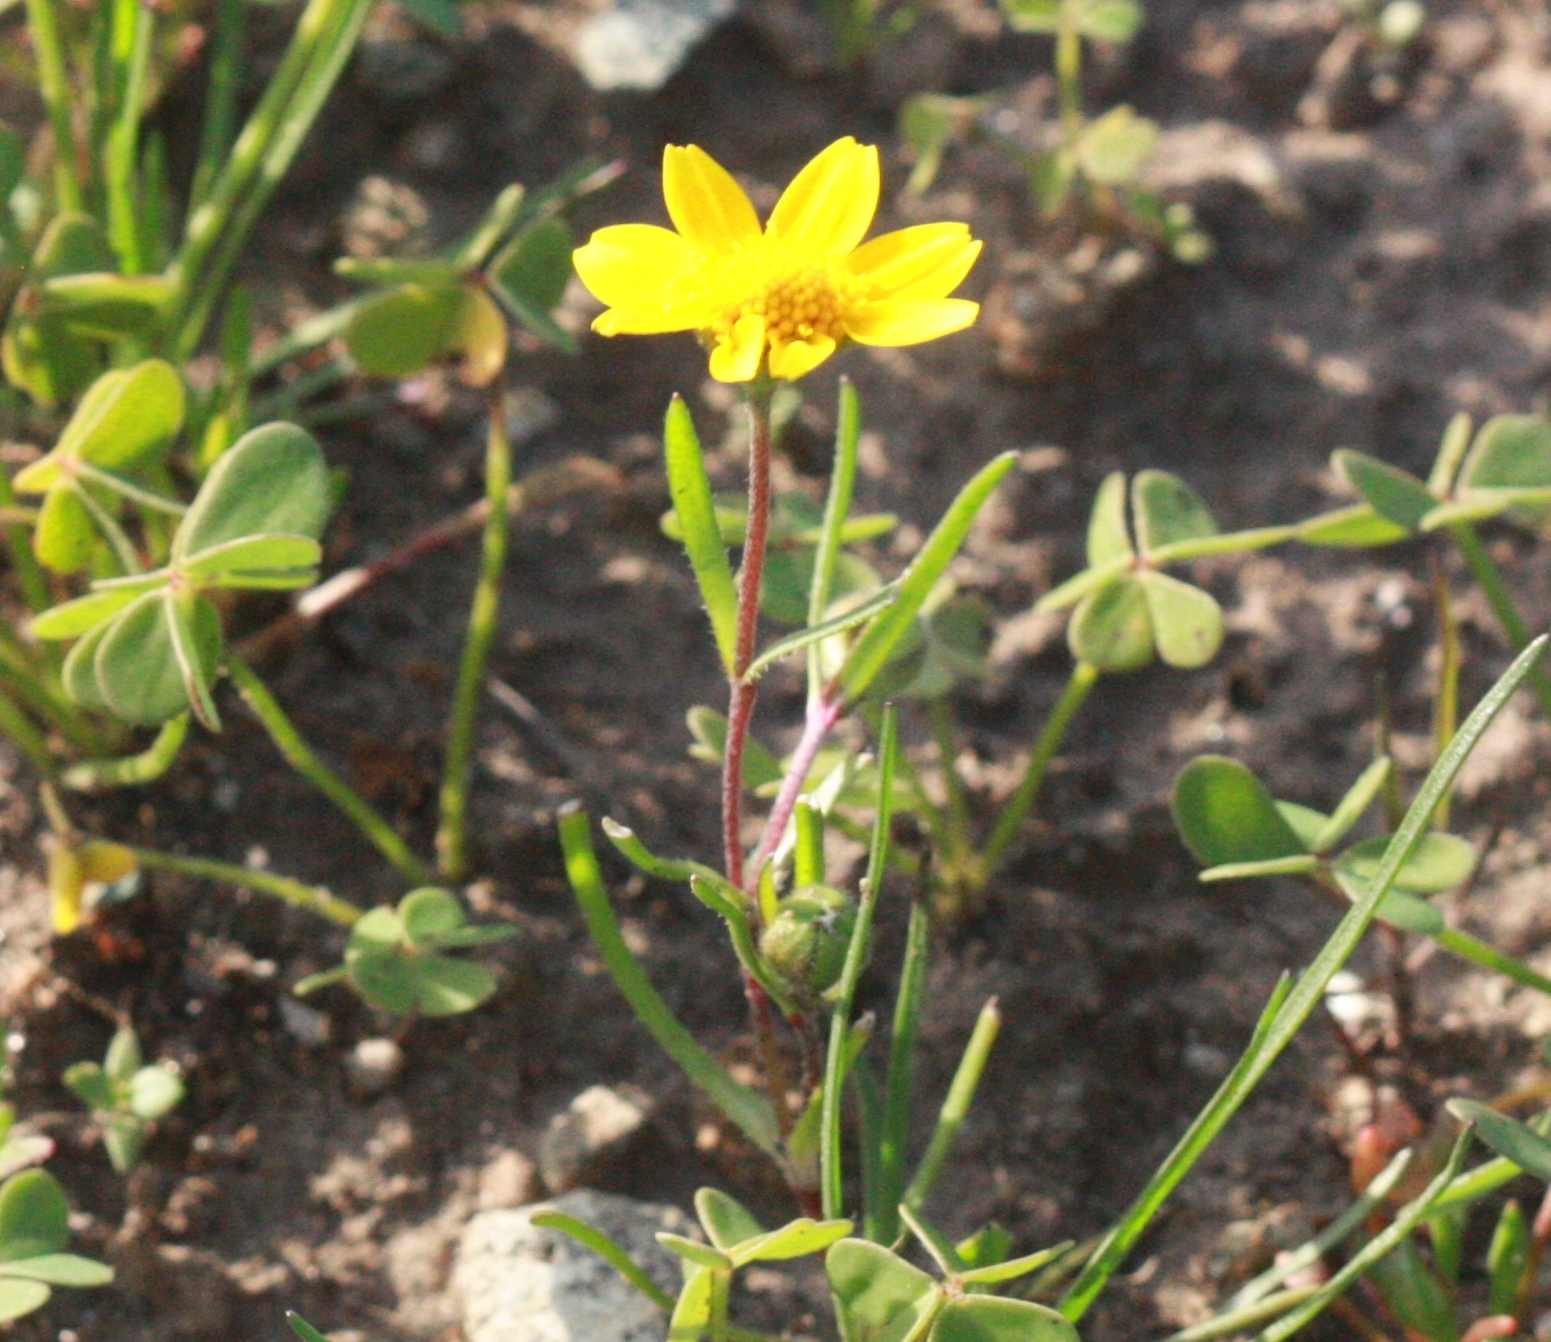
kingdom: Plantae
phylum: Tracheophyta
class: Magnoliopsida
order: Asterales
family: Asteraceae
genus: Lasthenia
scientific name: Lasthenia californica
